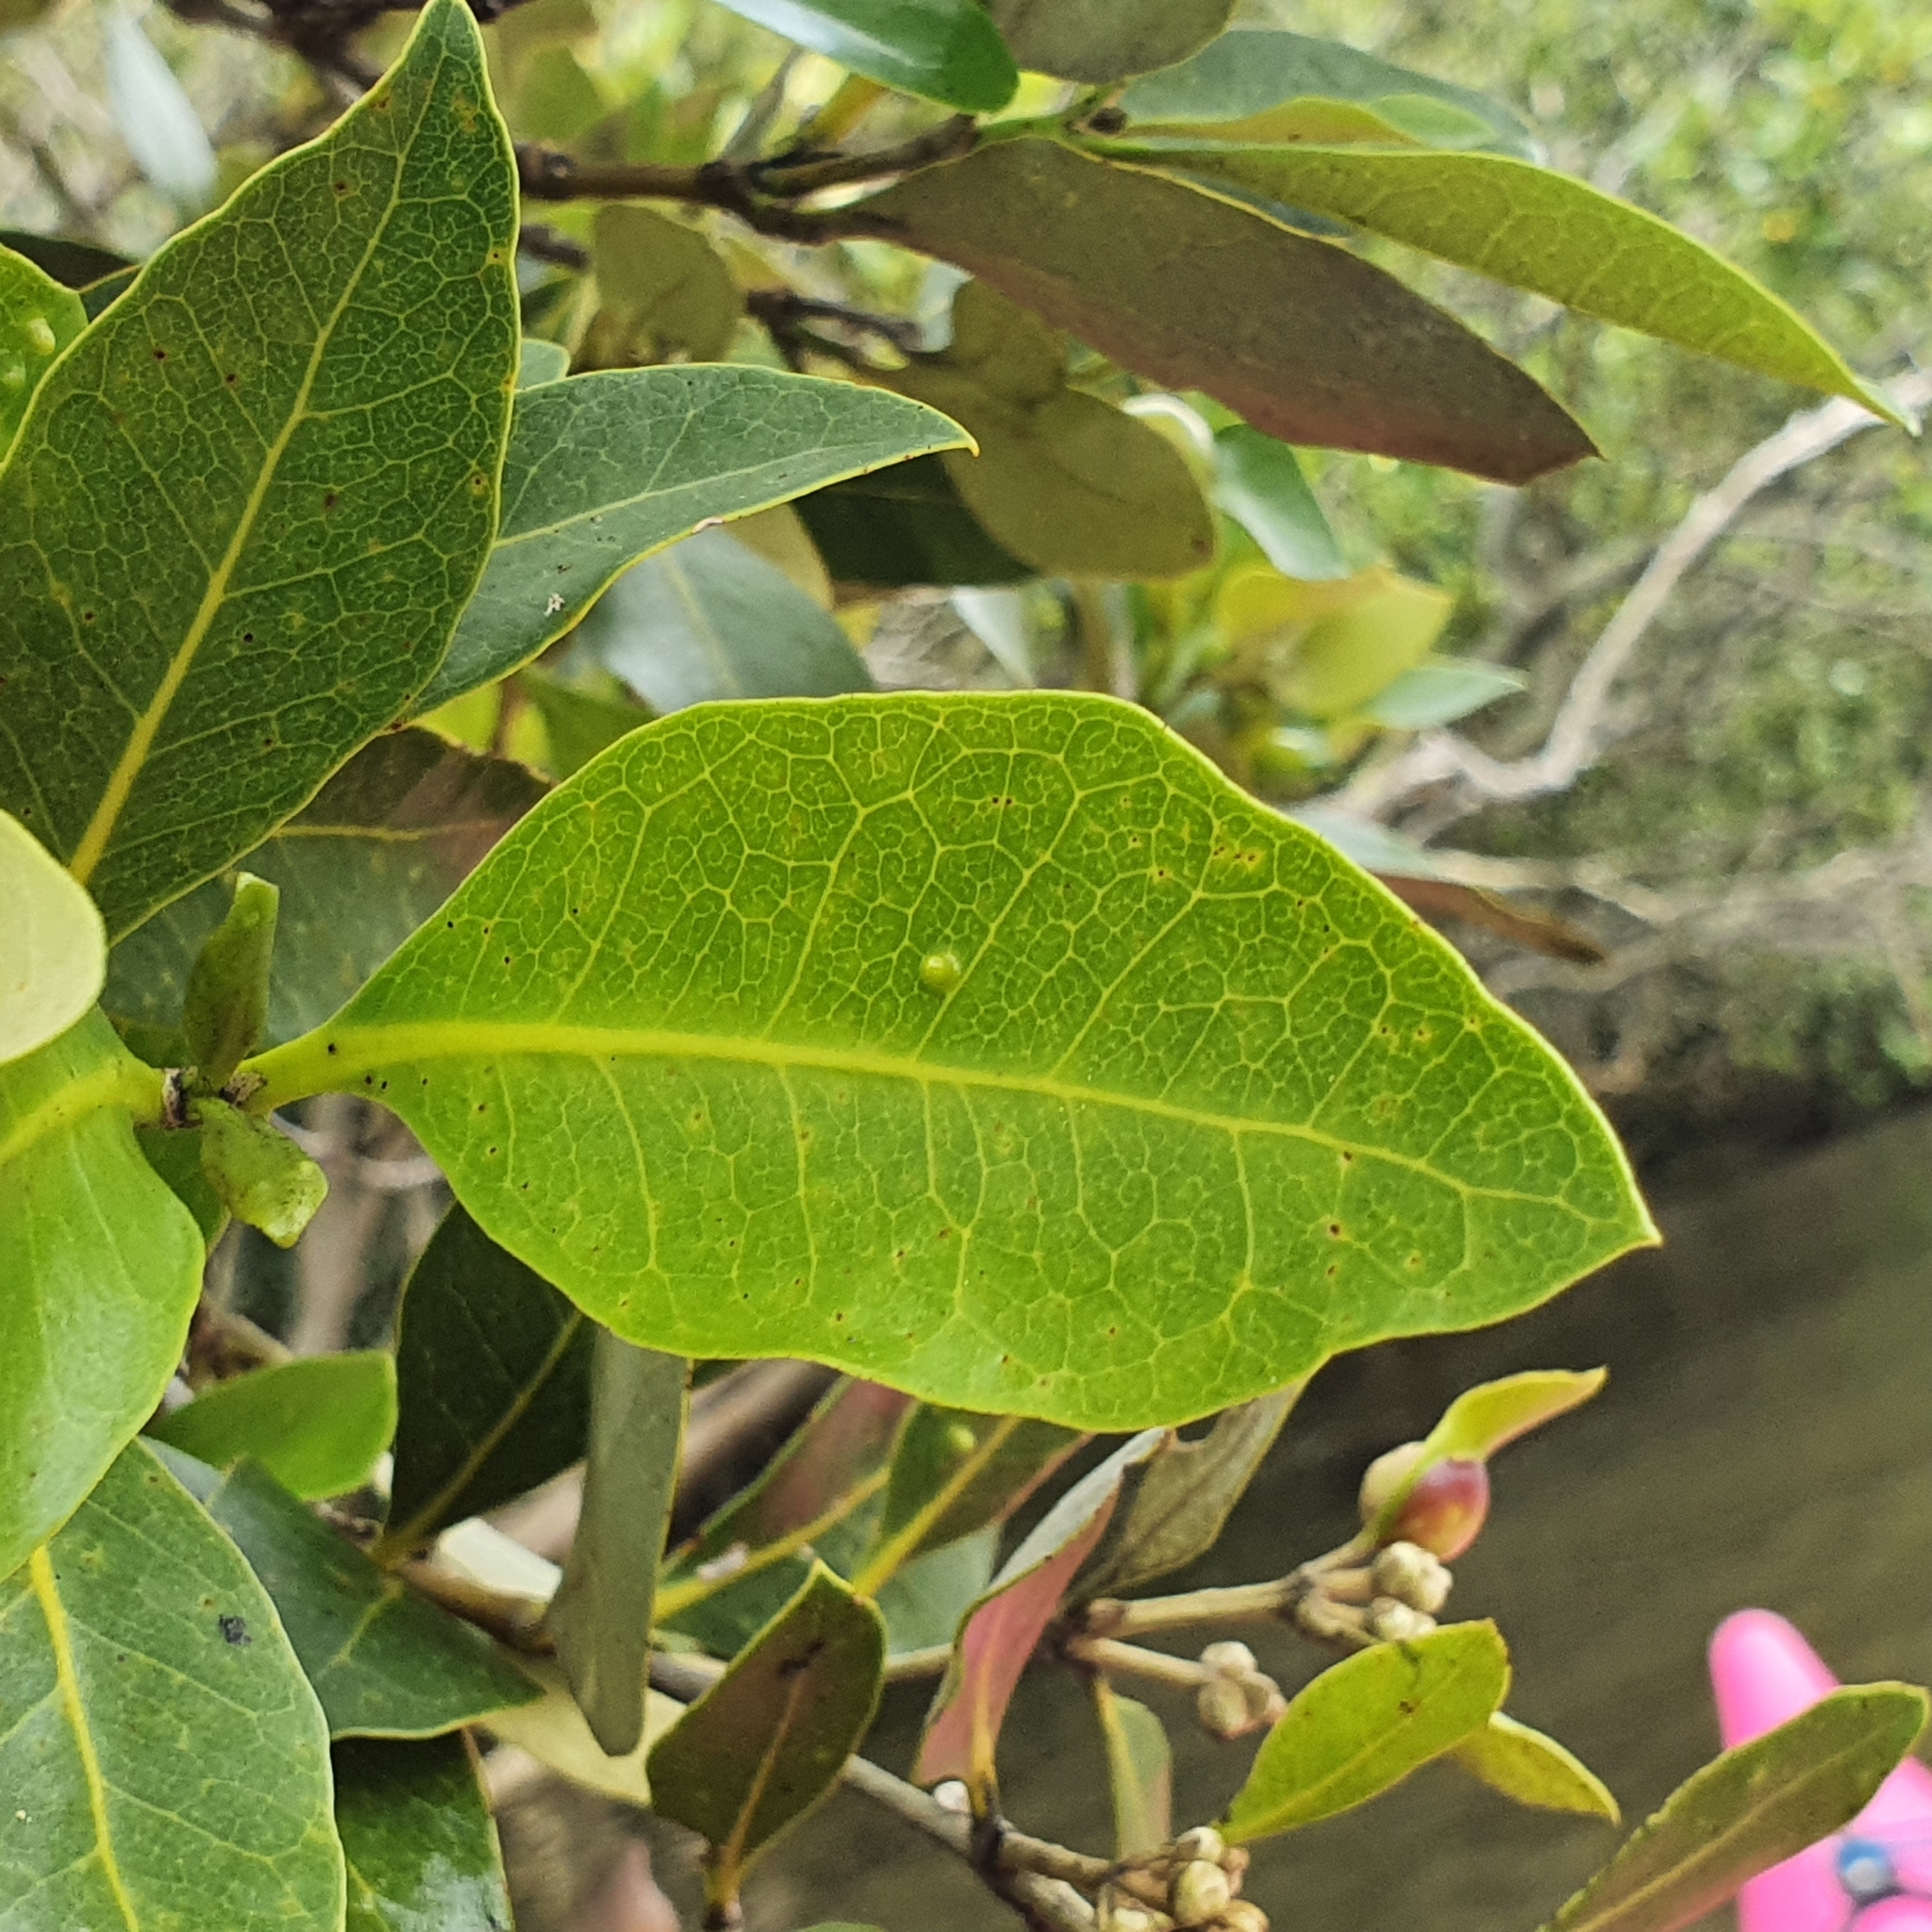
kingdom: Plantae
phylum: Tracheophyta
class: Magnoliopsida
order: Lamiales
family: Acanthaceae
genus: Avicennia
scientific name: Avicennia marina
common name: Gray mangrove
